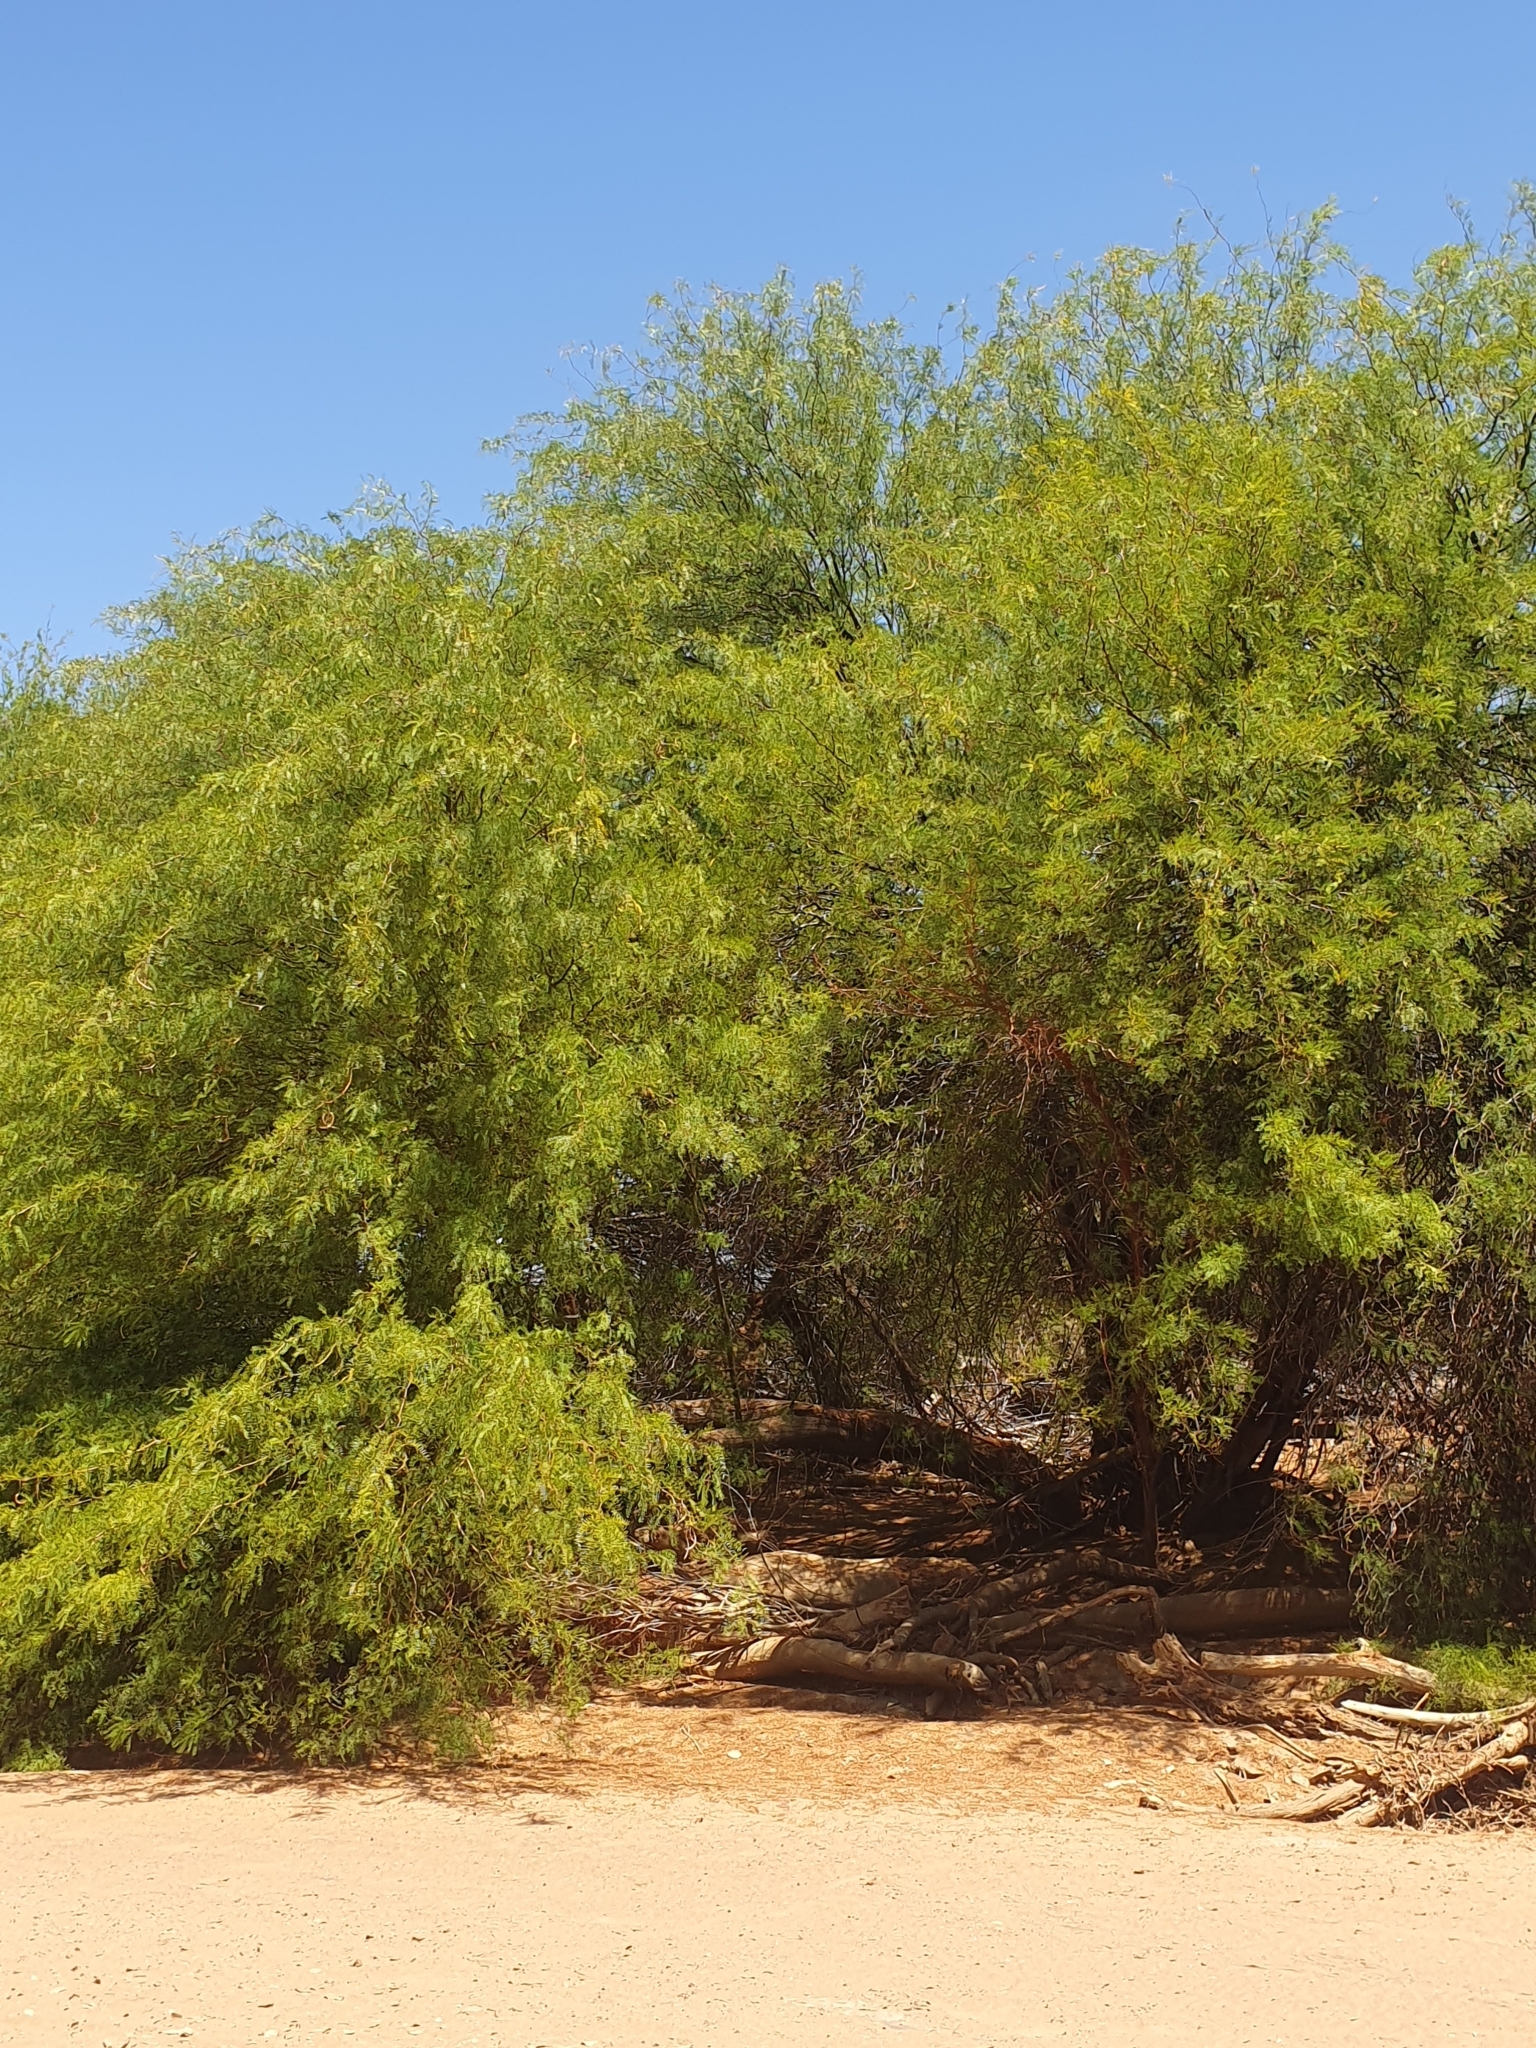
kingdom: Plantae
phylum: Tracheophyta
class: Magnoliopsida
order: Fabales
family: Fabaceae
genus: Prosopis
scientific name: Prosopis glandulosa
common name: Honey mesquite
